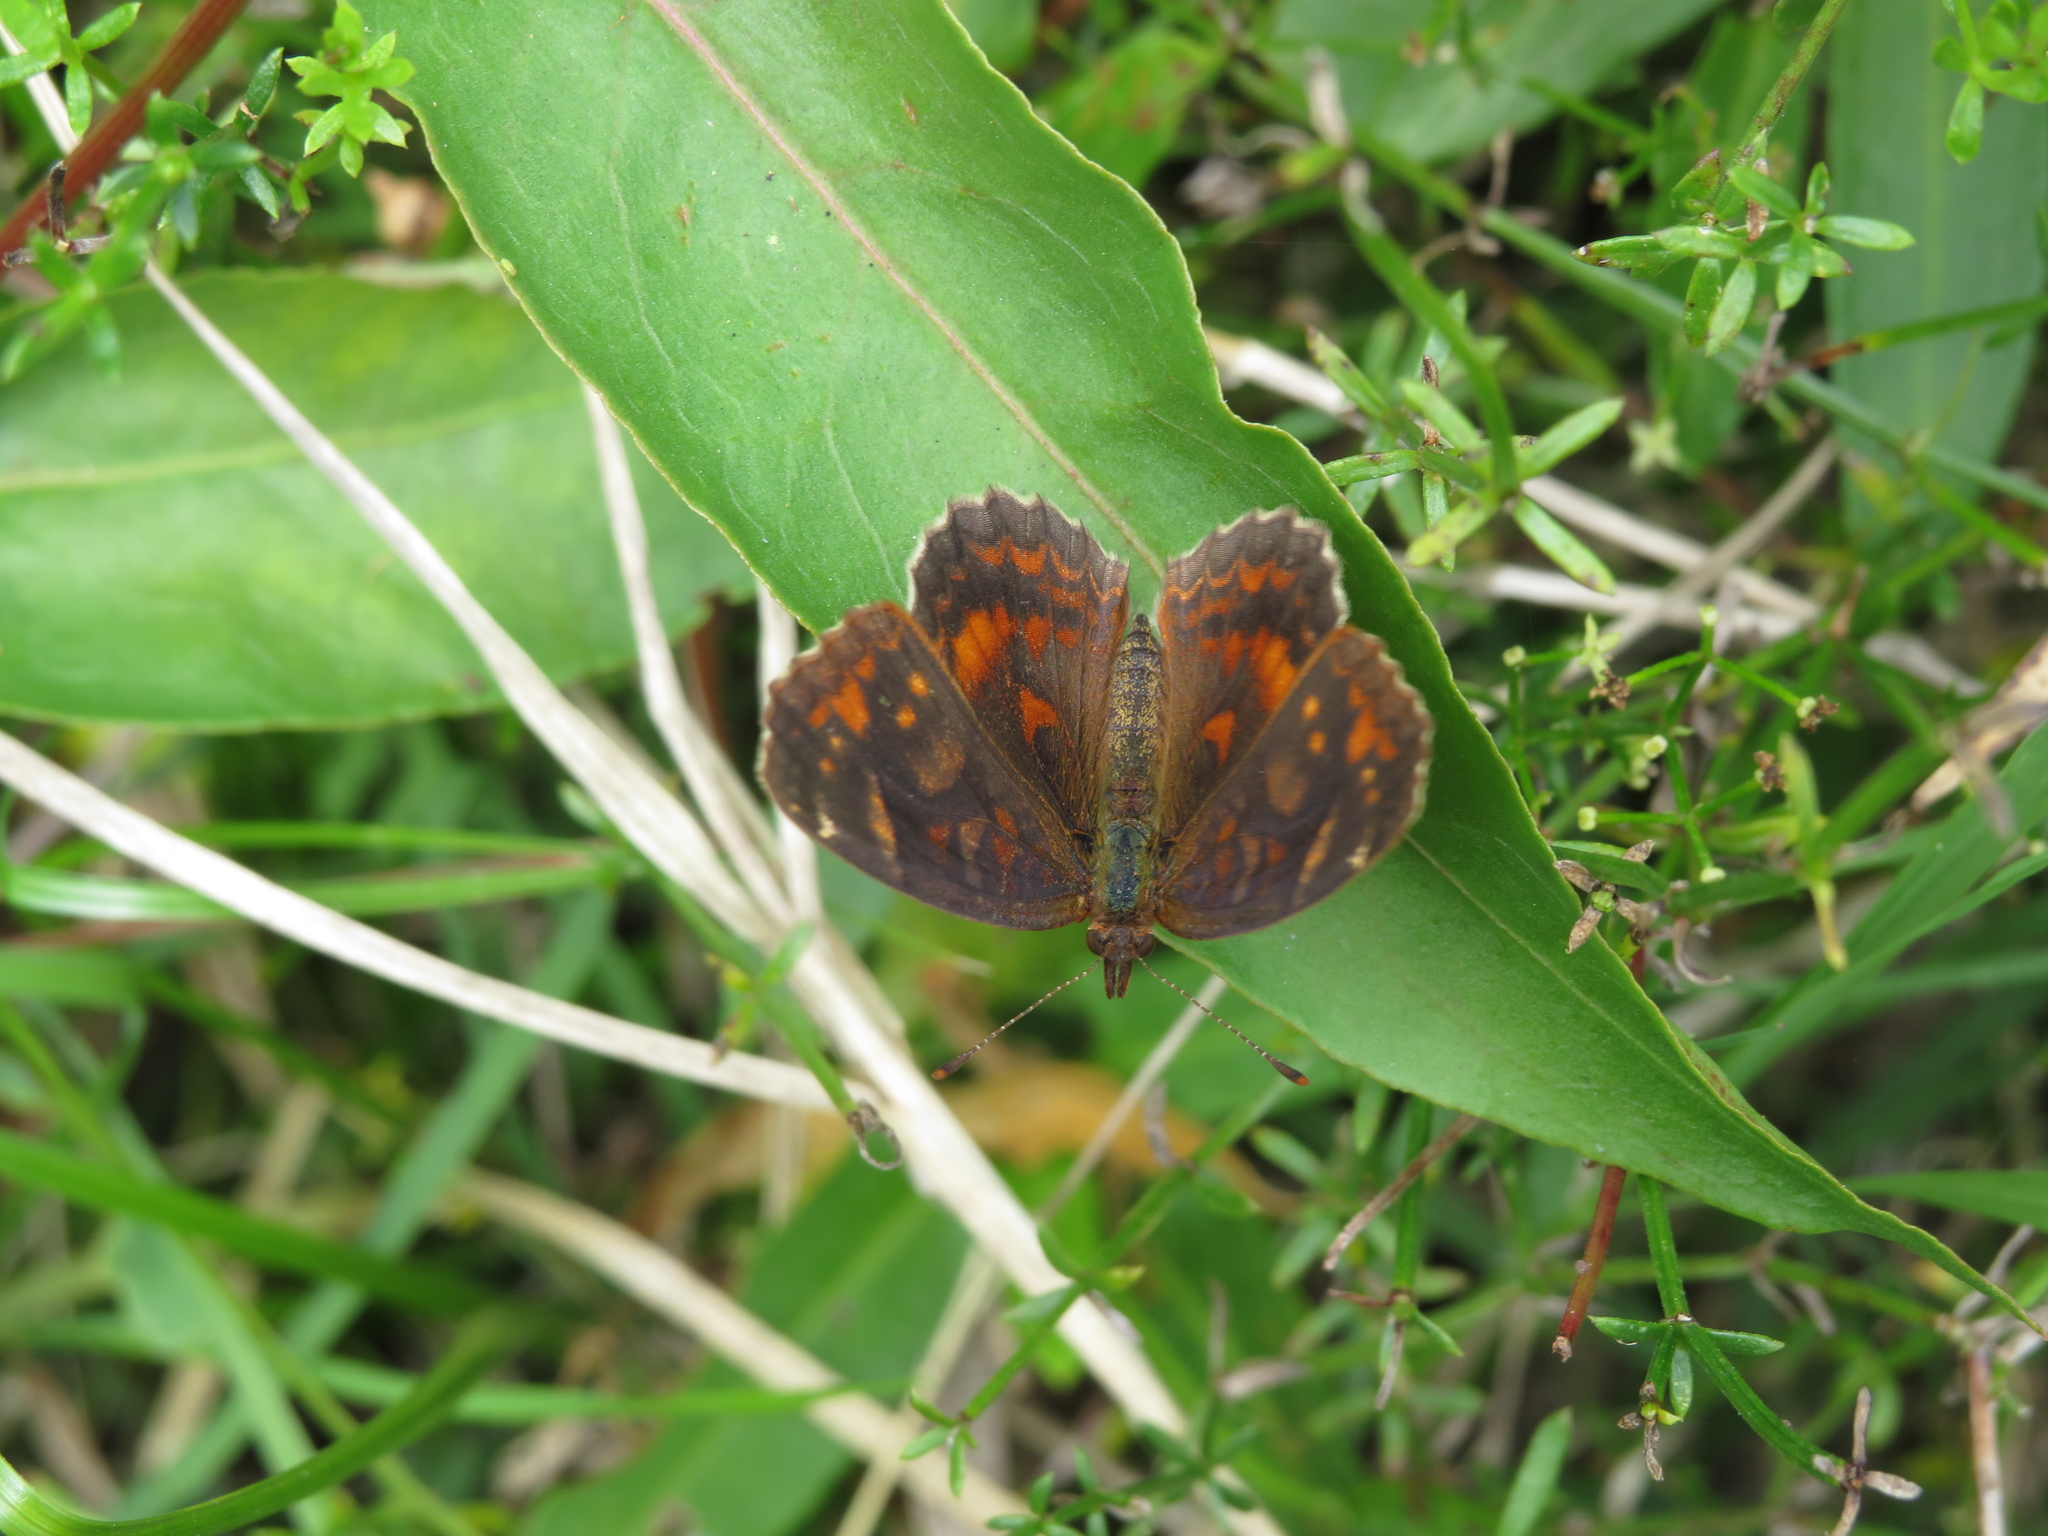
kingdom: Animalia
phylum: Arthropoda
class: Insecta
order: Lepidoptera
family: Nymphalidae
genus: Ortilia
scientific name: Ortilia velica
